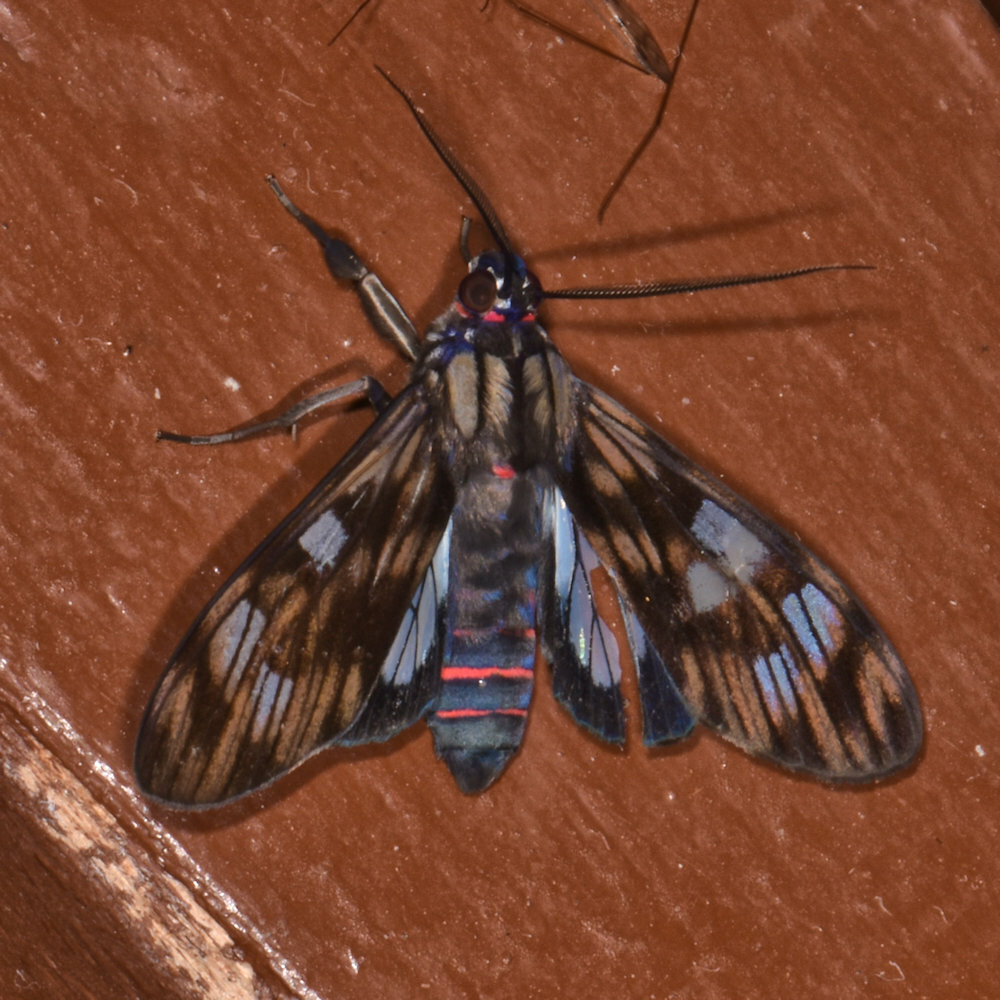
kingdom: Animalia
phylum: Arthropoda
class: Insecta
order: Lepidoptera
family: Erebidae
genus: Episcepsis
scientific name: Episcepsis
